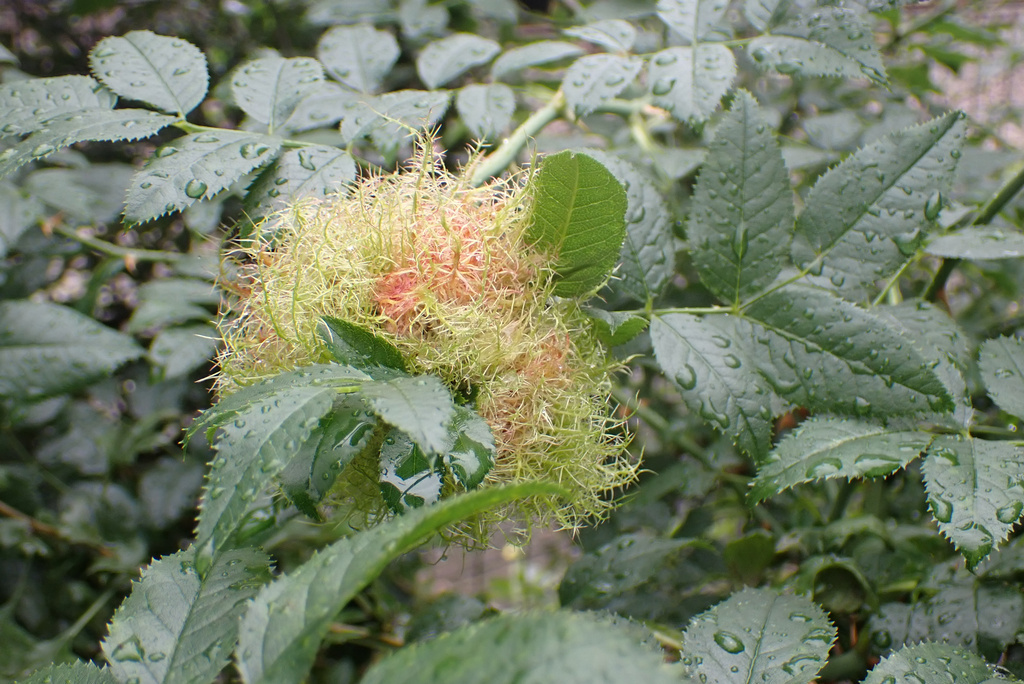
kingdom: Animalia
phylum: Arthropoda
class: Insecta
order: Hymenoptera
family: Cynipidae
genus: Diplolepis
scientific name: Diplolepis rosae
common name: Bedeguar gall
